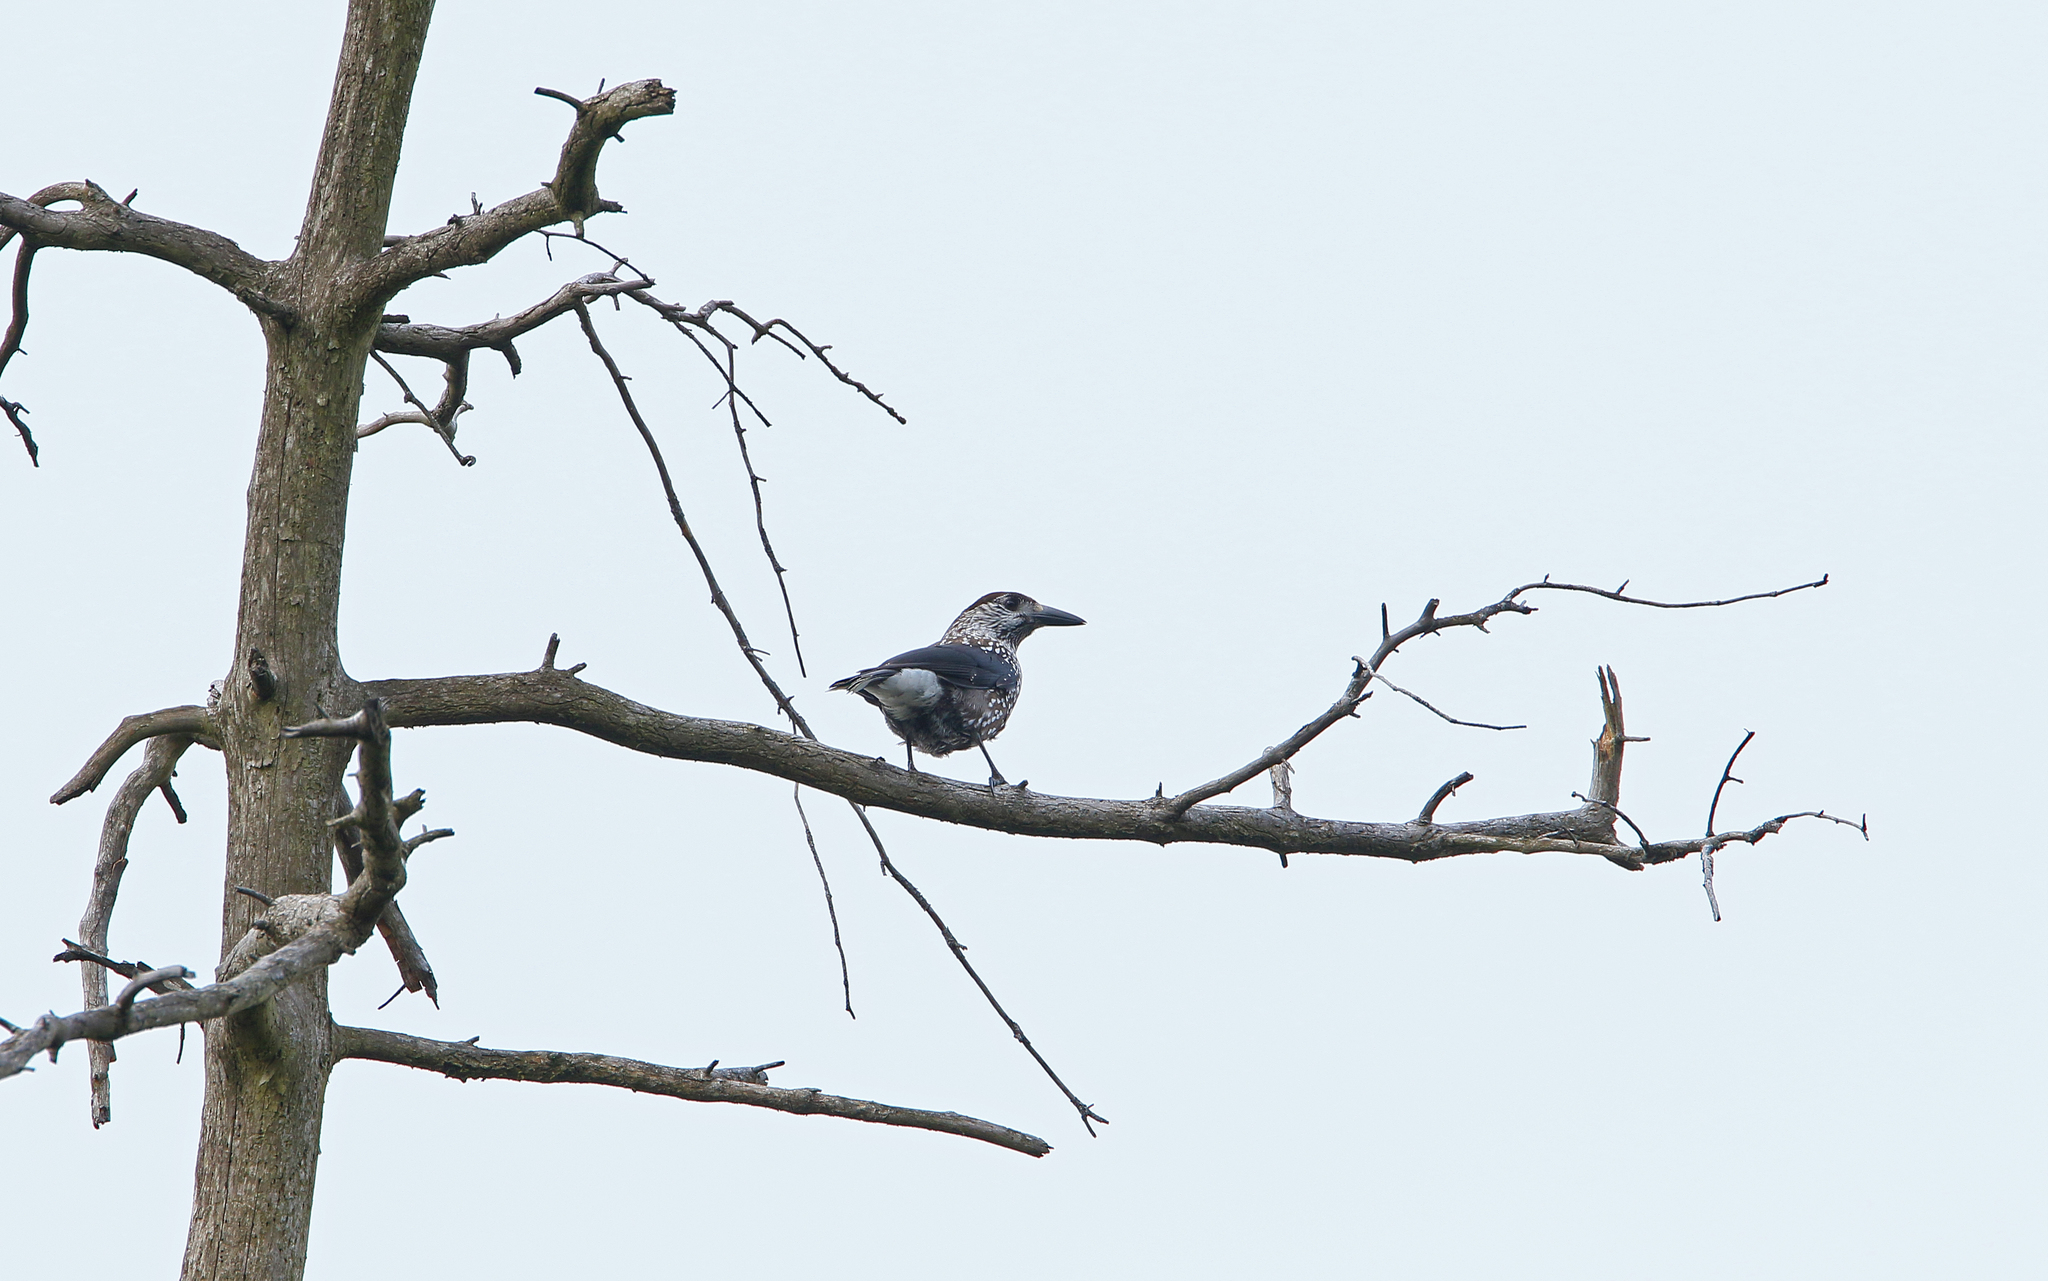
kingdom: Animalia
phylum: Chordata
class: Aves
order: Passeriformes
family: Corvidae
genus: Nucifraga
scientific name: Nucifraga caryocatactes
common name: Spotted nutcracker
